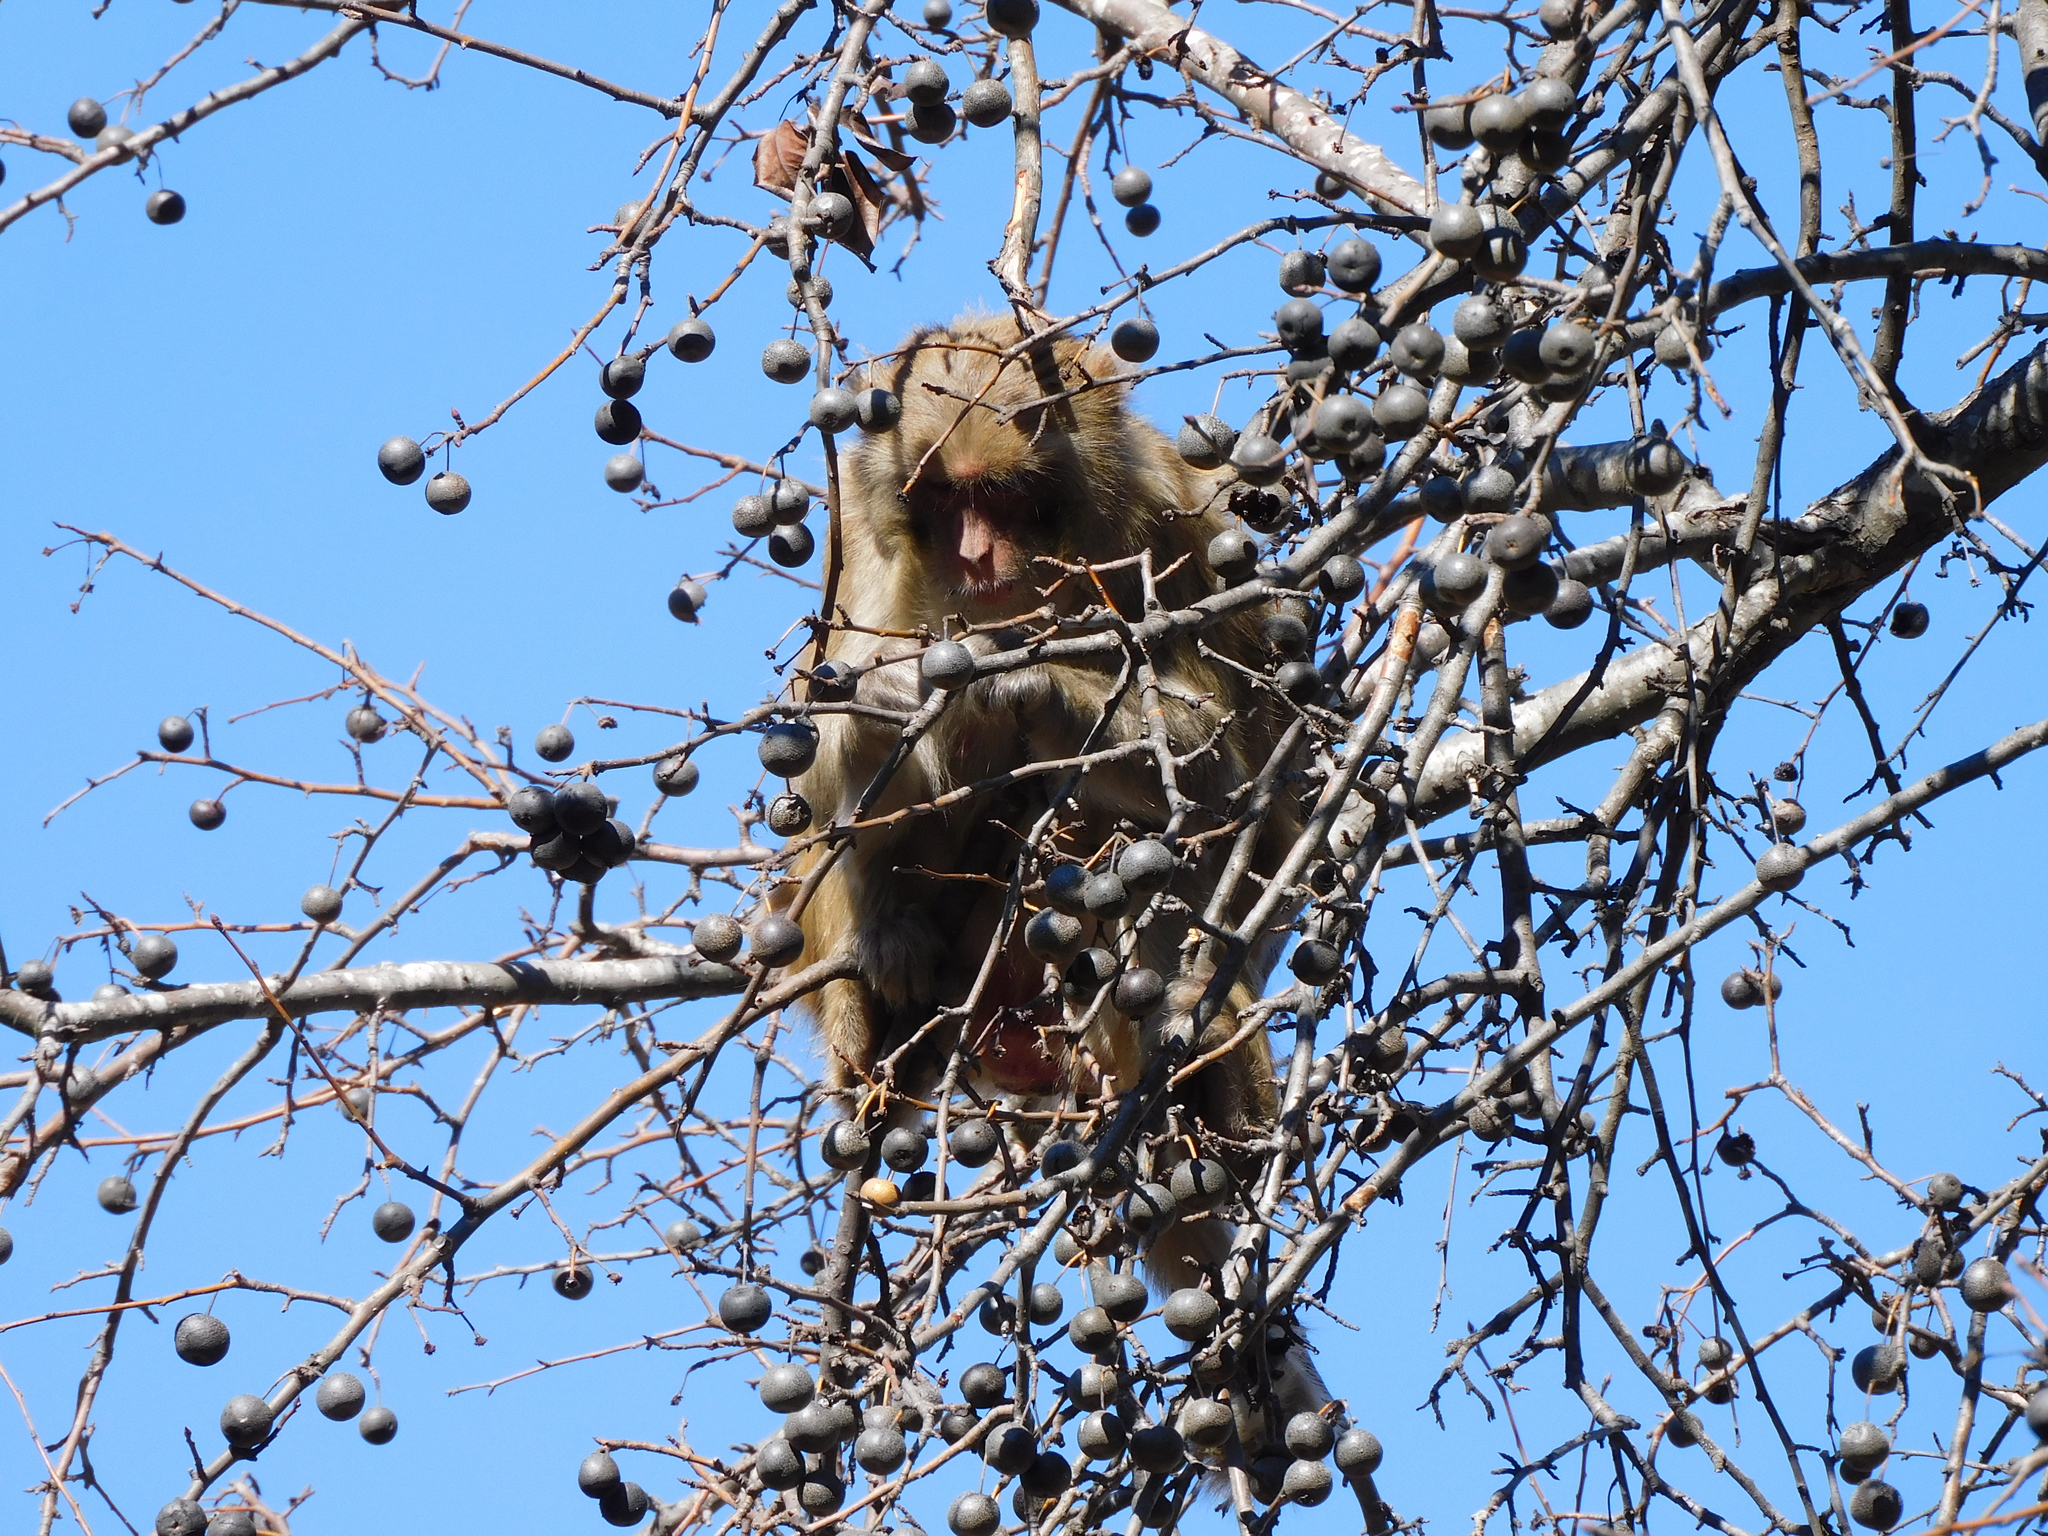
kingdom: Animalia
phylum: Chordata
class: Mammalia
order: Primates
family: Cercopithecidae
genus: Macaca
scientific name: Macaca mulatta
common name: Rhesus monkey
